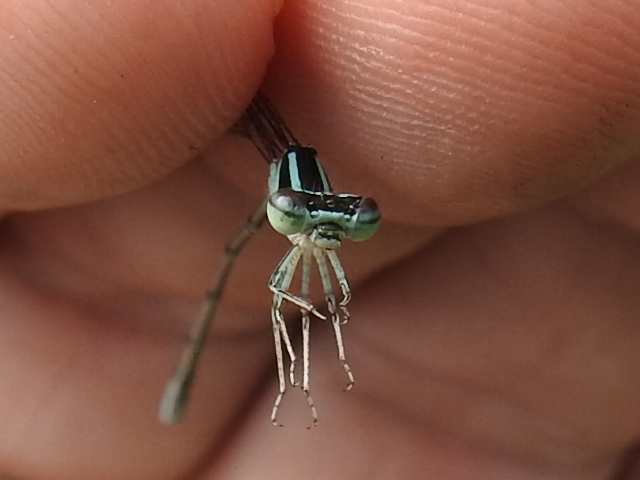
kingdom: Animalia
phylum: Arthropoda
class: Insecta
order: Odonata
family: Coenagrionidae
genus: Enallagma
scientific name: Enallagma exsulans
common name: Stream bluet
